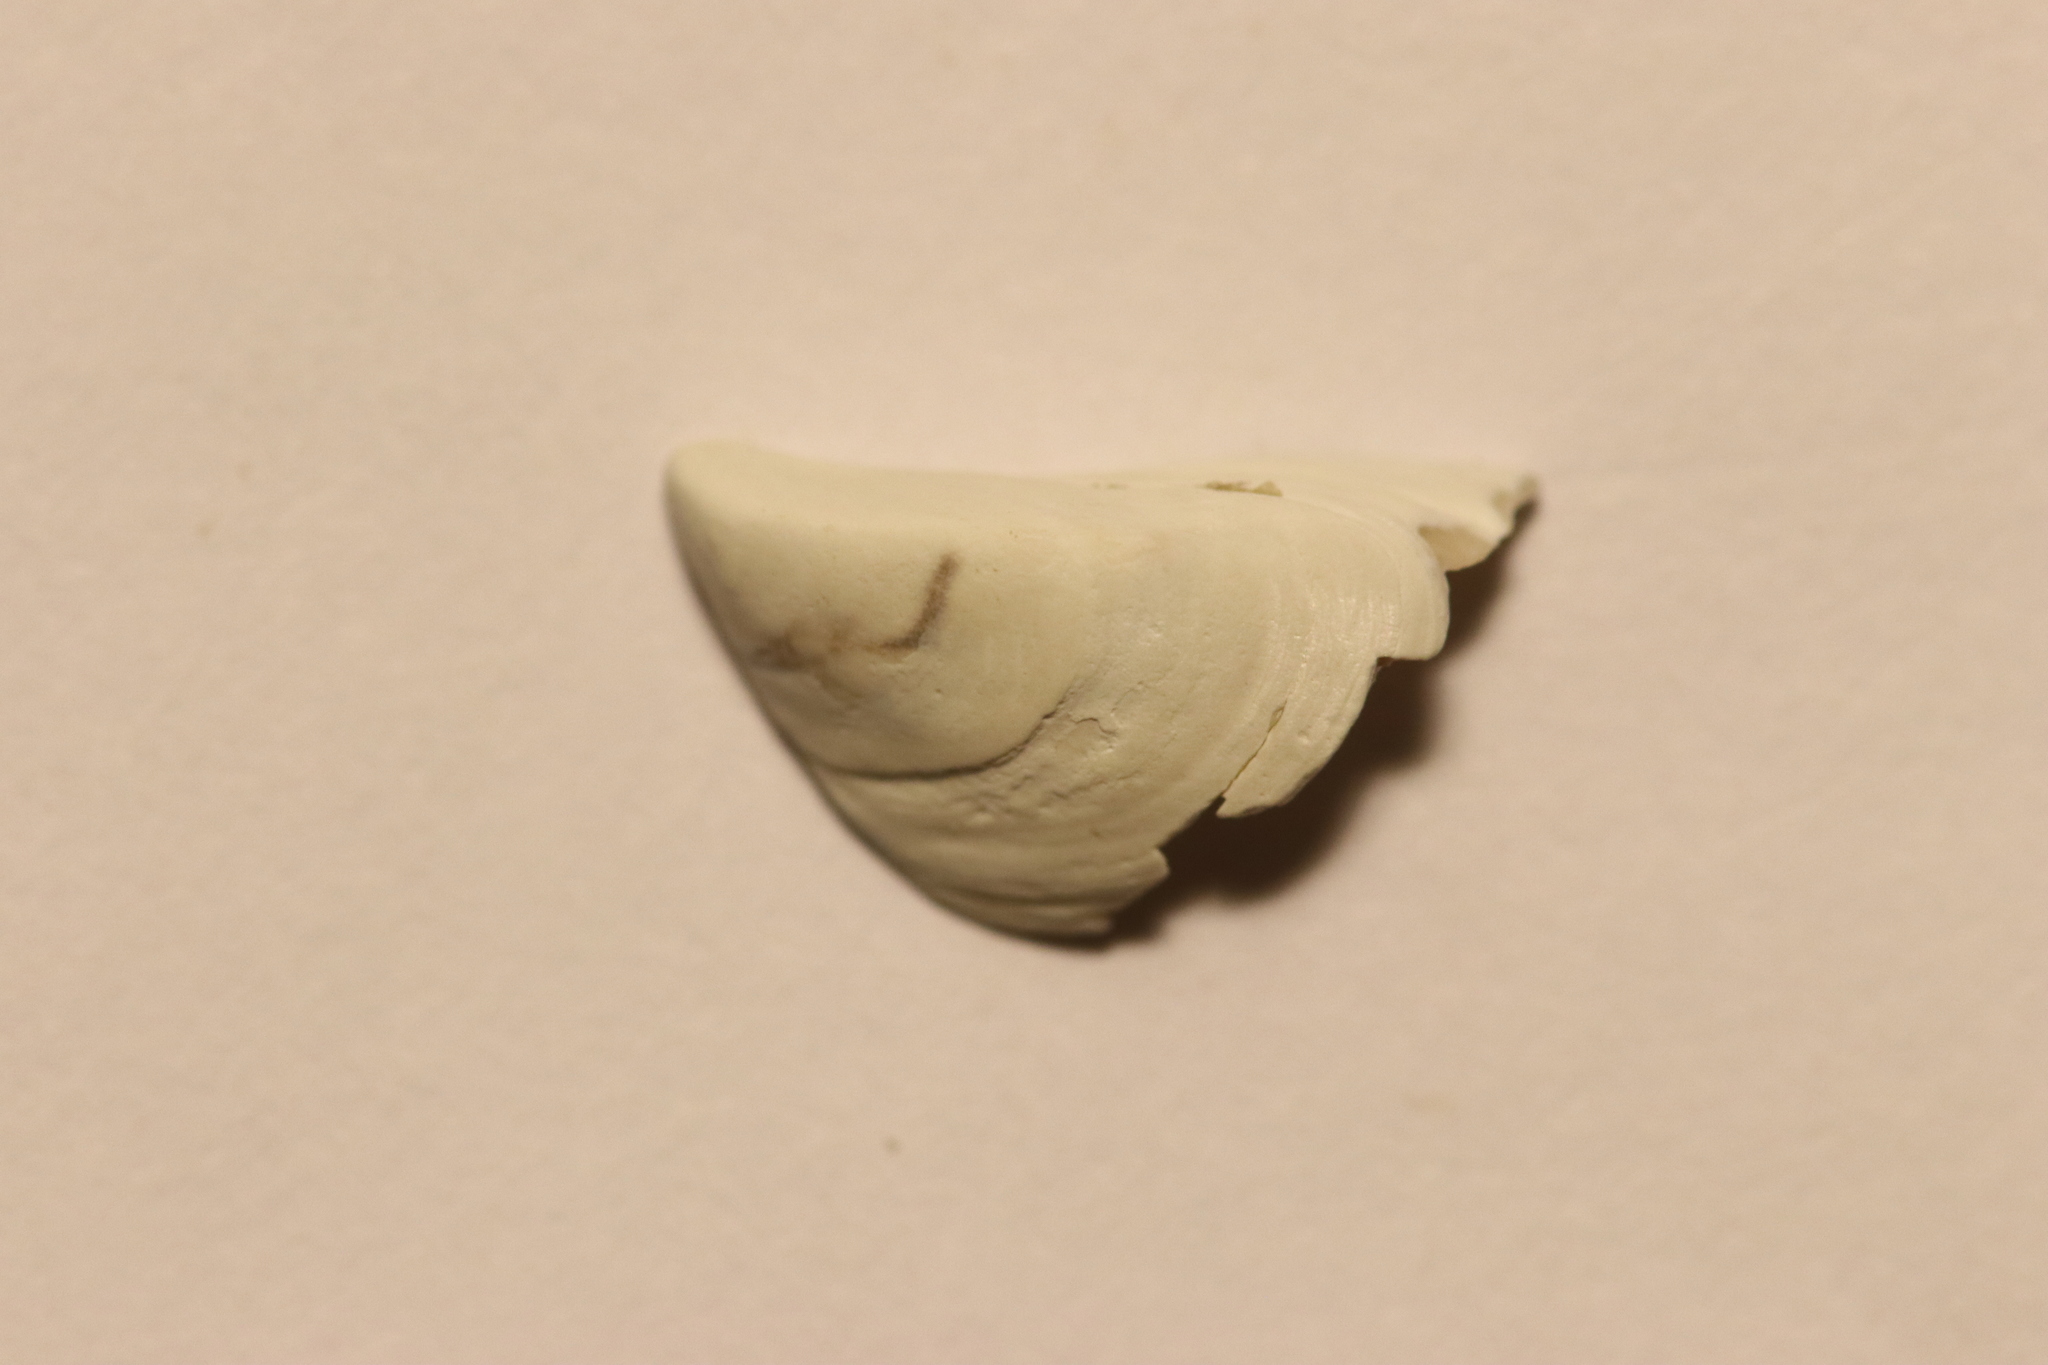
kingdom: Animalia
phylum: Mollusca
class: Bivalvia
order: Myida
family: Dreissenidae
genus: Dreissena
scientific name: Dreissena polymorpha
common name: Zebra mussel
